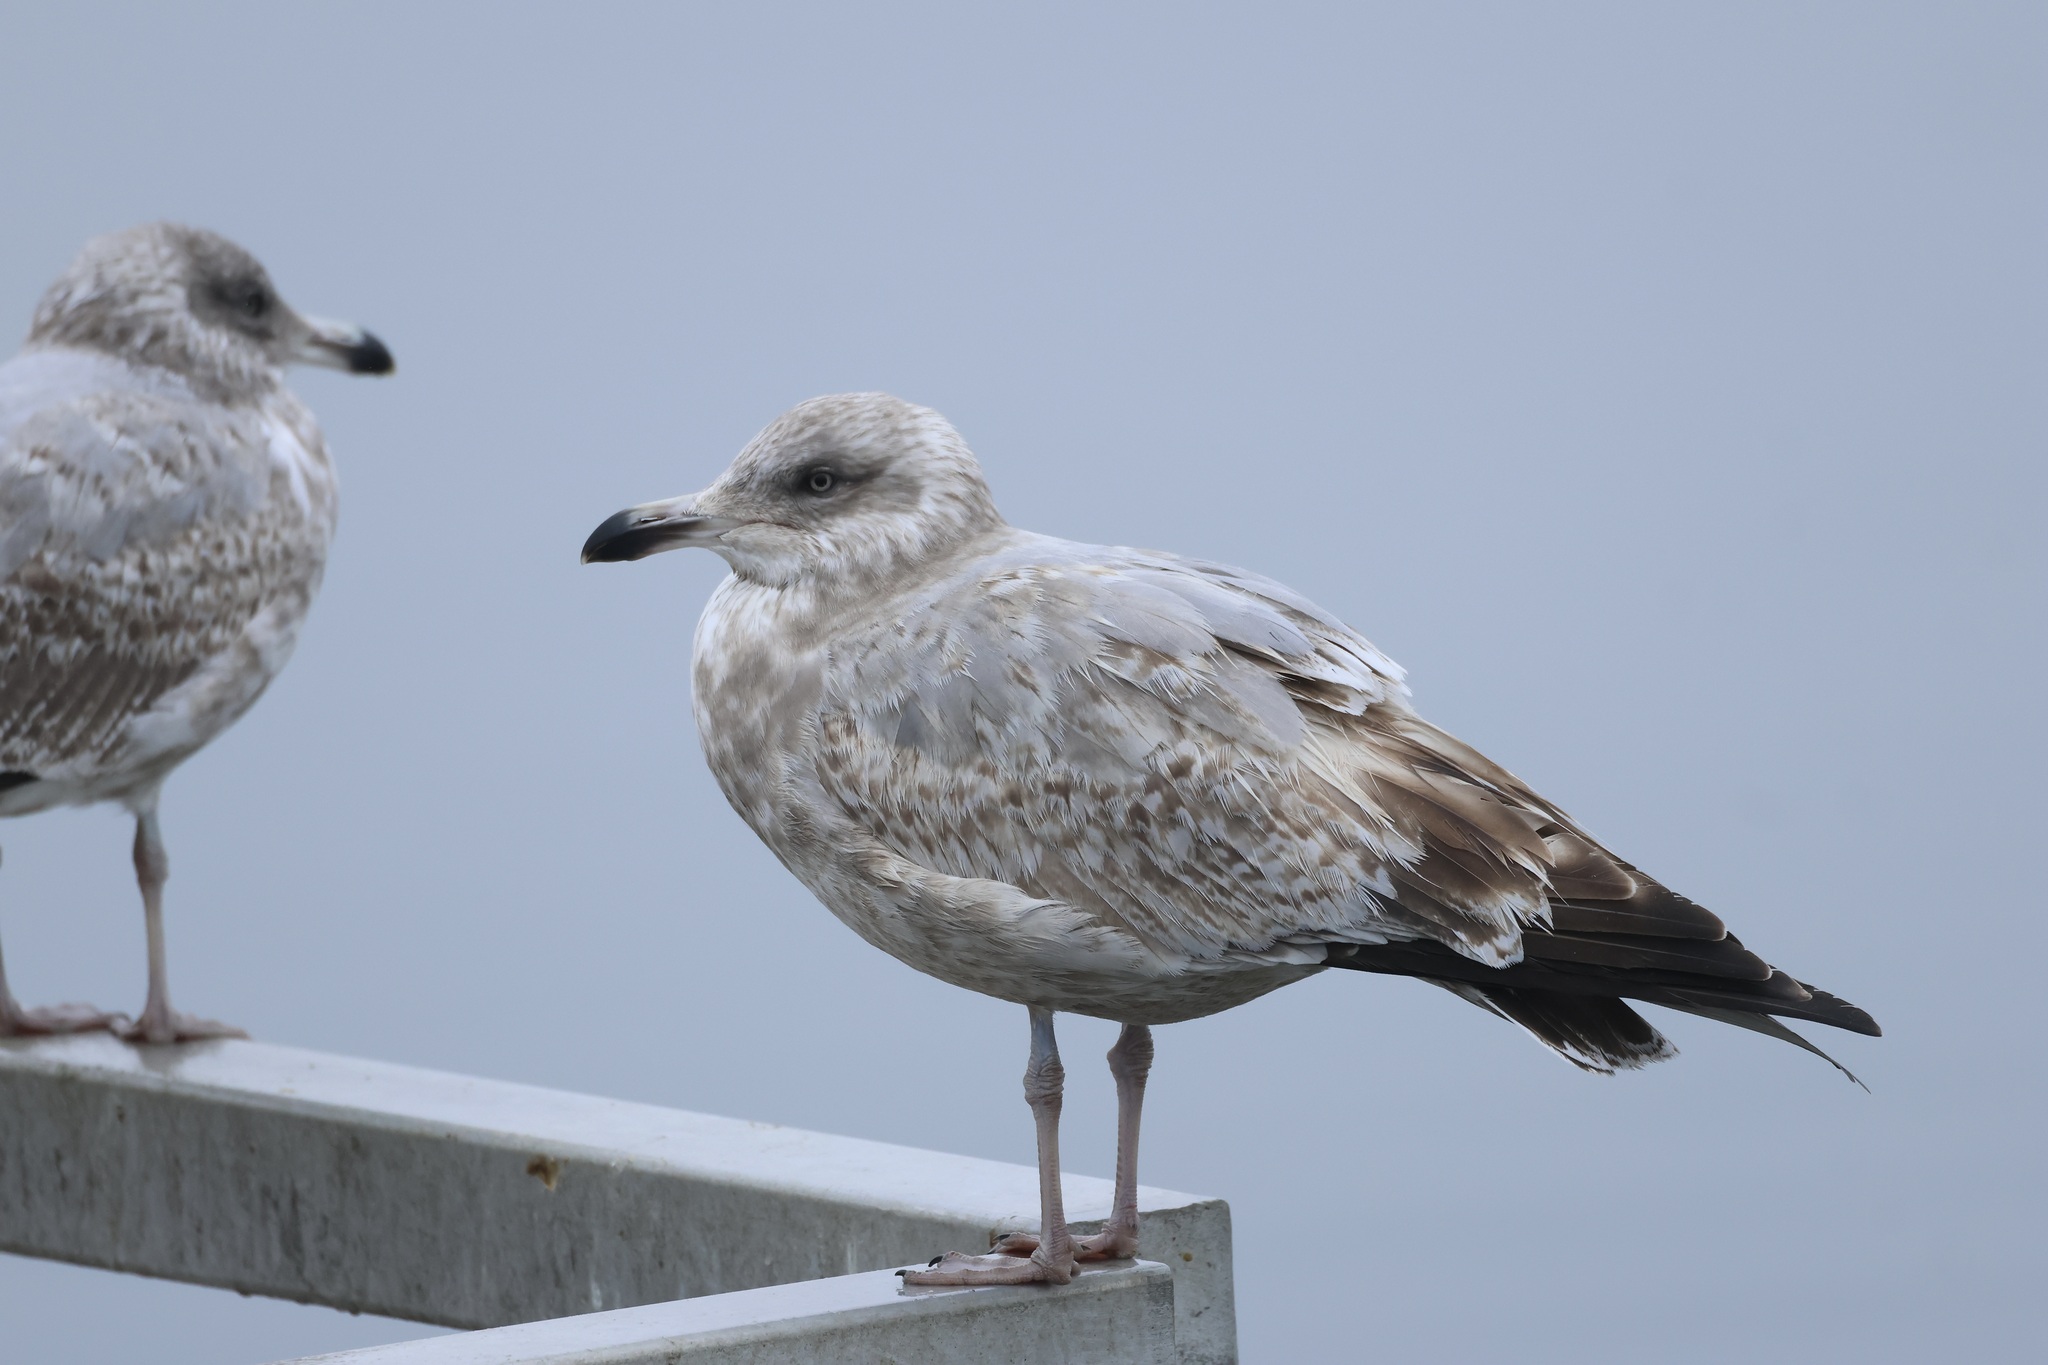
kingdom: Animalia
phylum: Chordata
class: Aves
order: Charadriiformes
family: Laridae
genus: Larus
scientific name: Larus argentatus
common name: Herring gull
